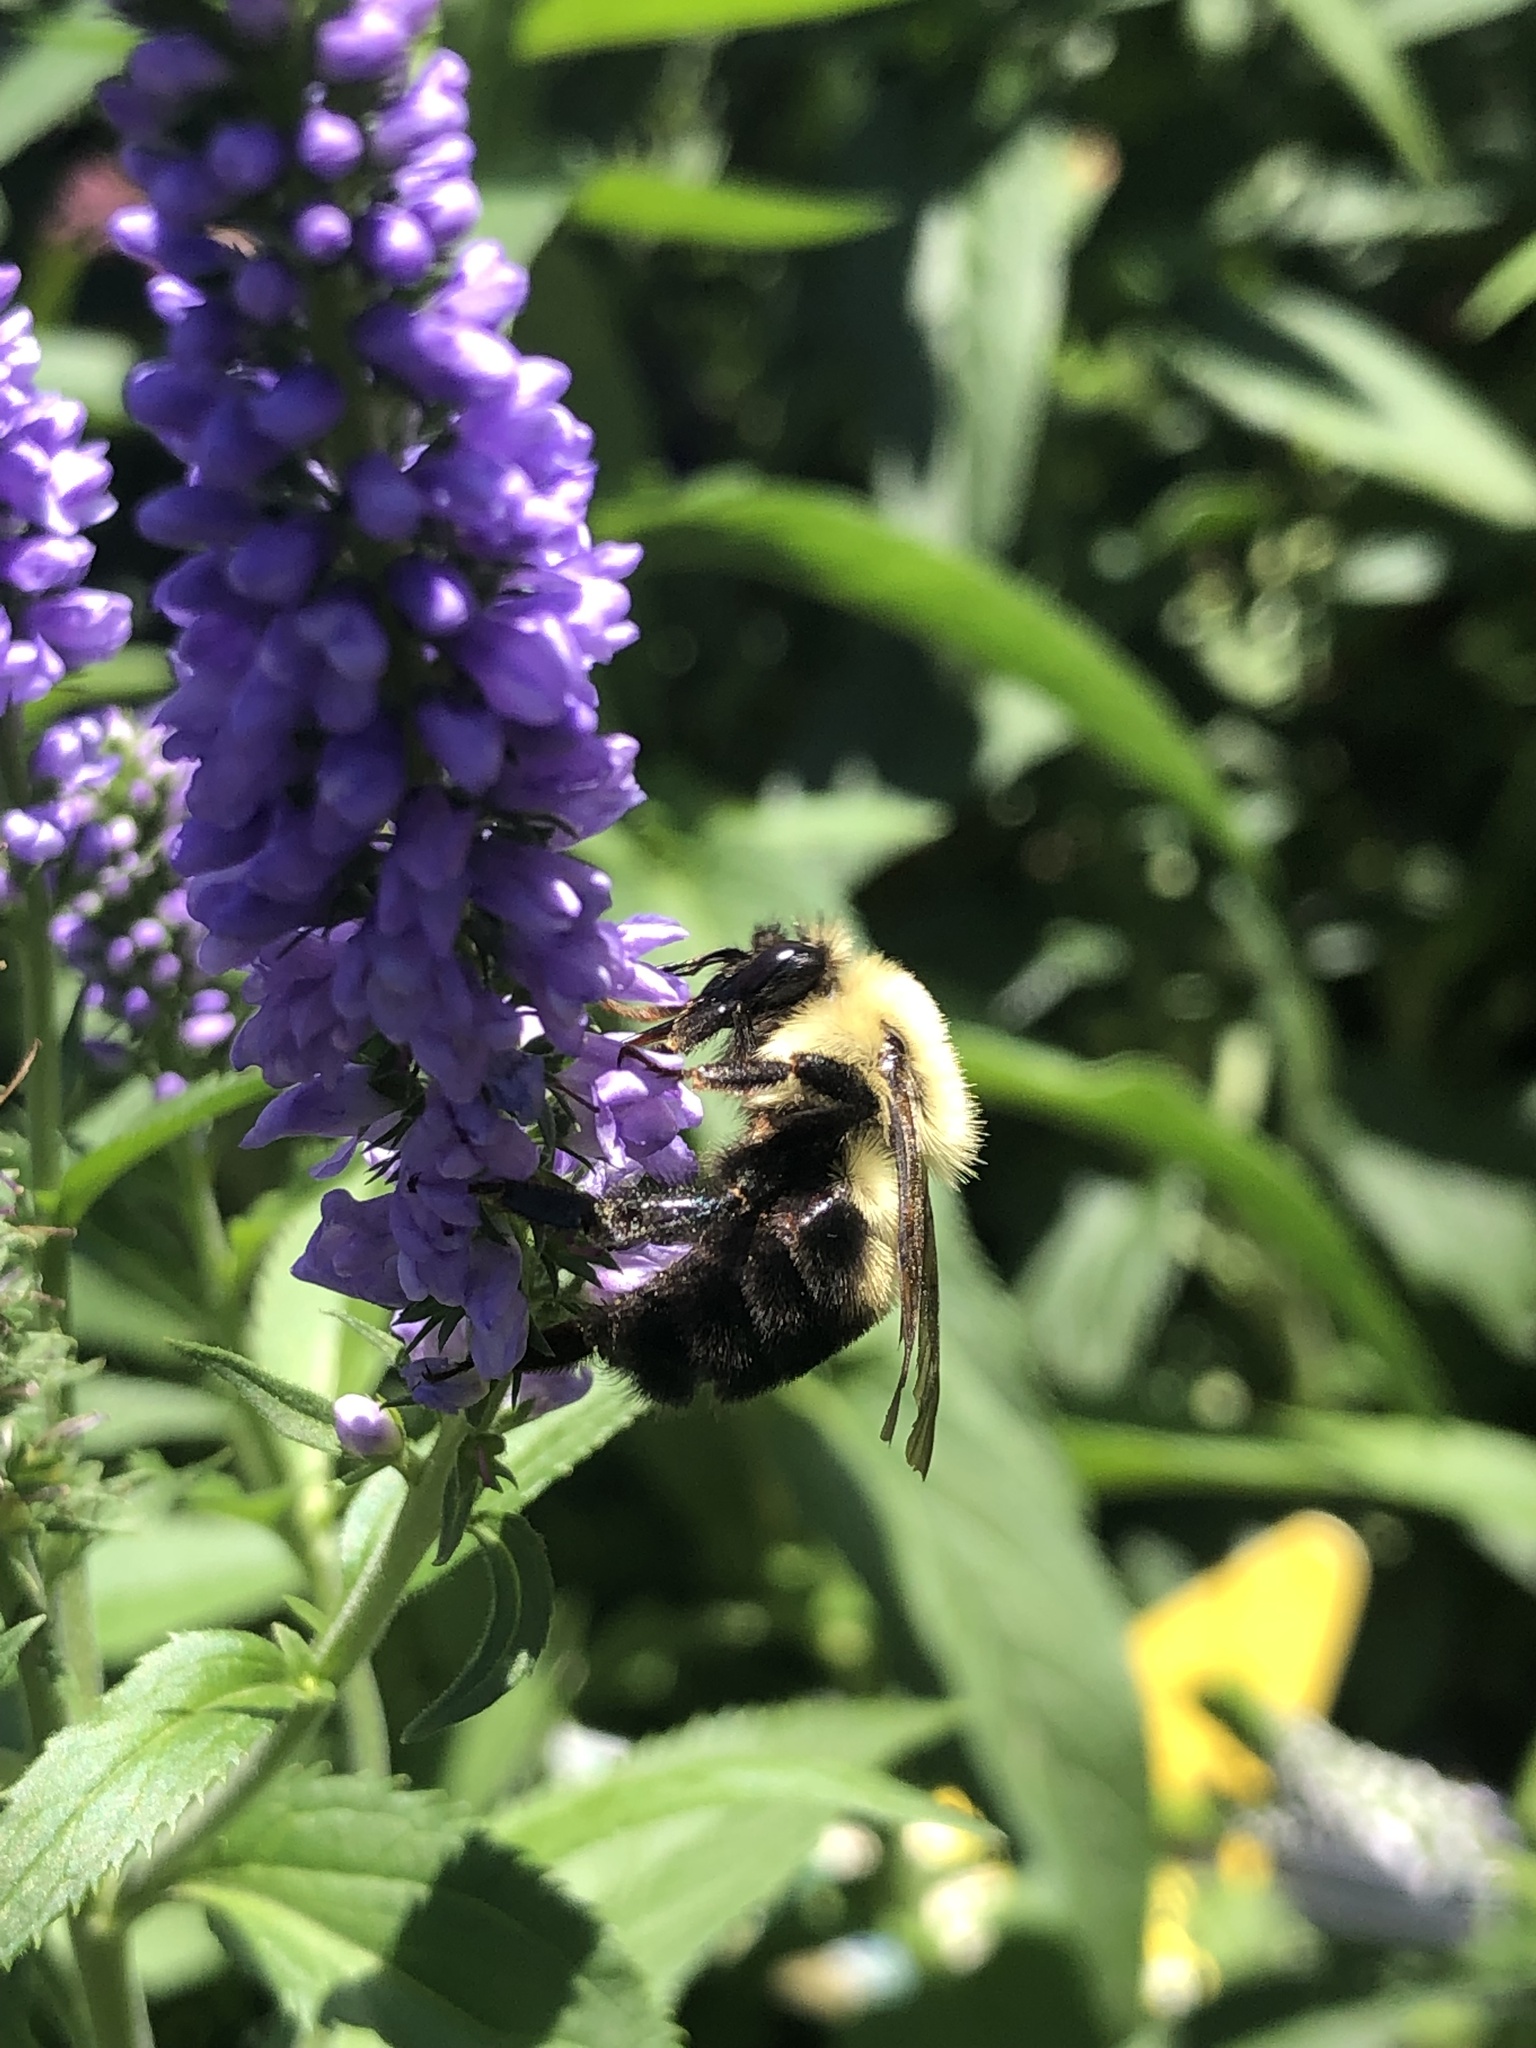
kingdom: Animalia
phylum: Arthropoda
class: Insecta
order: Hymenoptera
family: Apidae
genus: Bombus
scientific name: Bombus bimaculatus
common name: Two-spotted bumble bee
